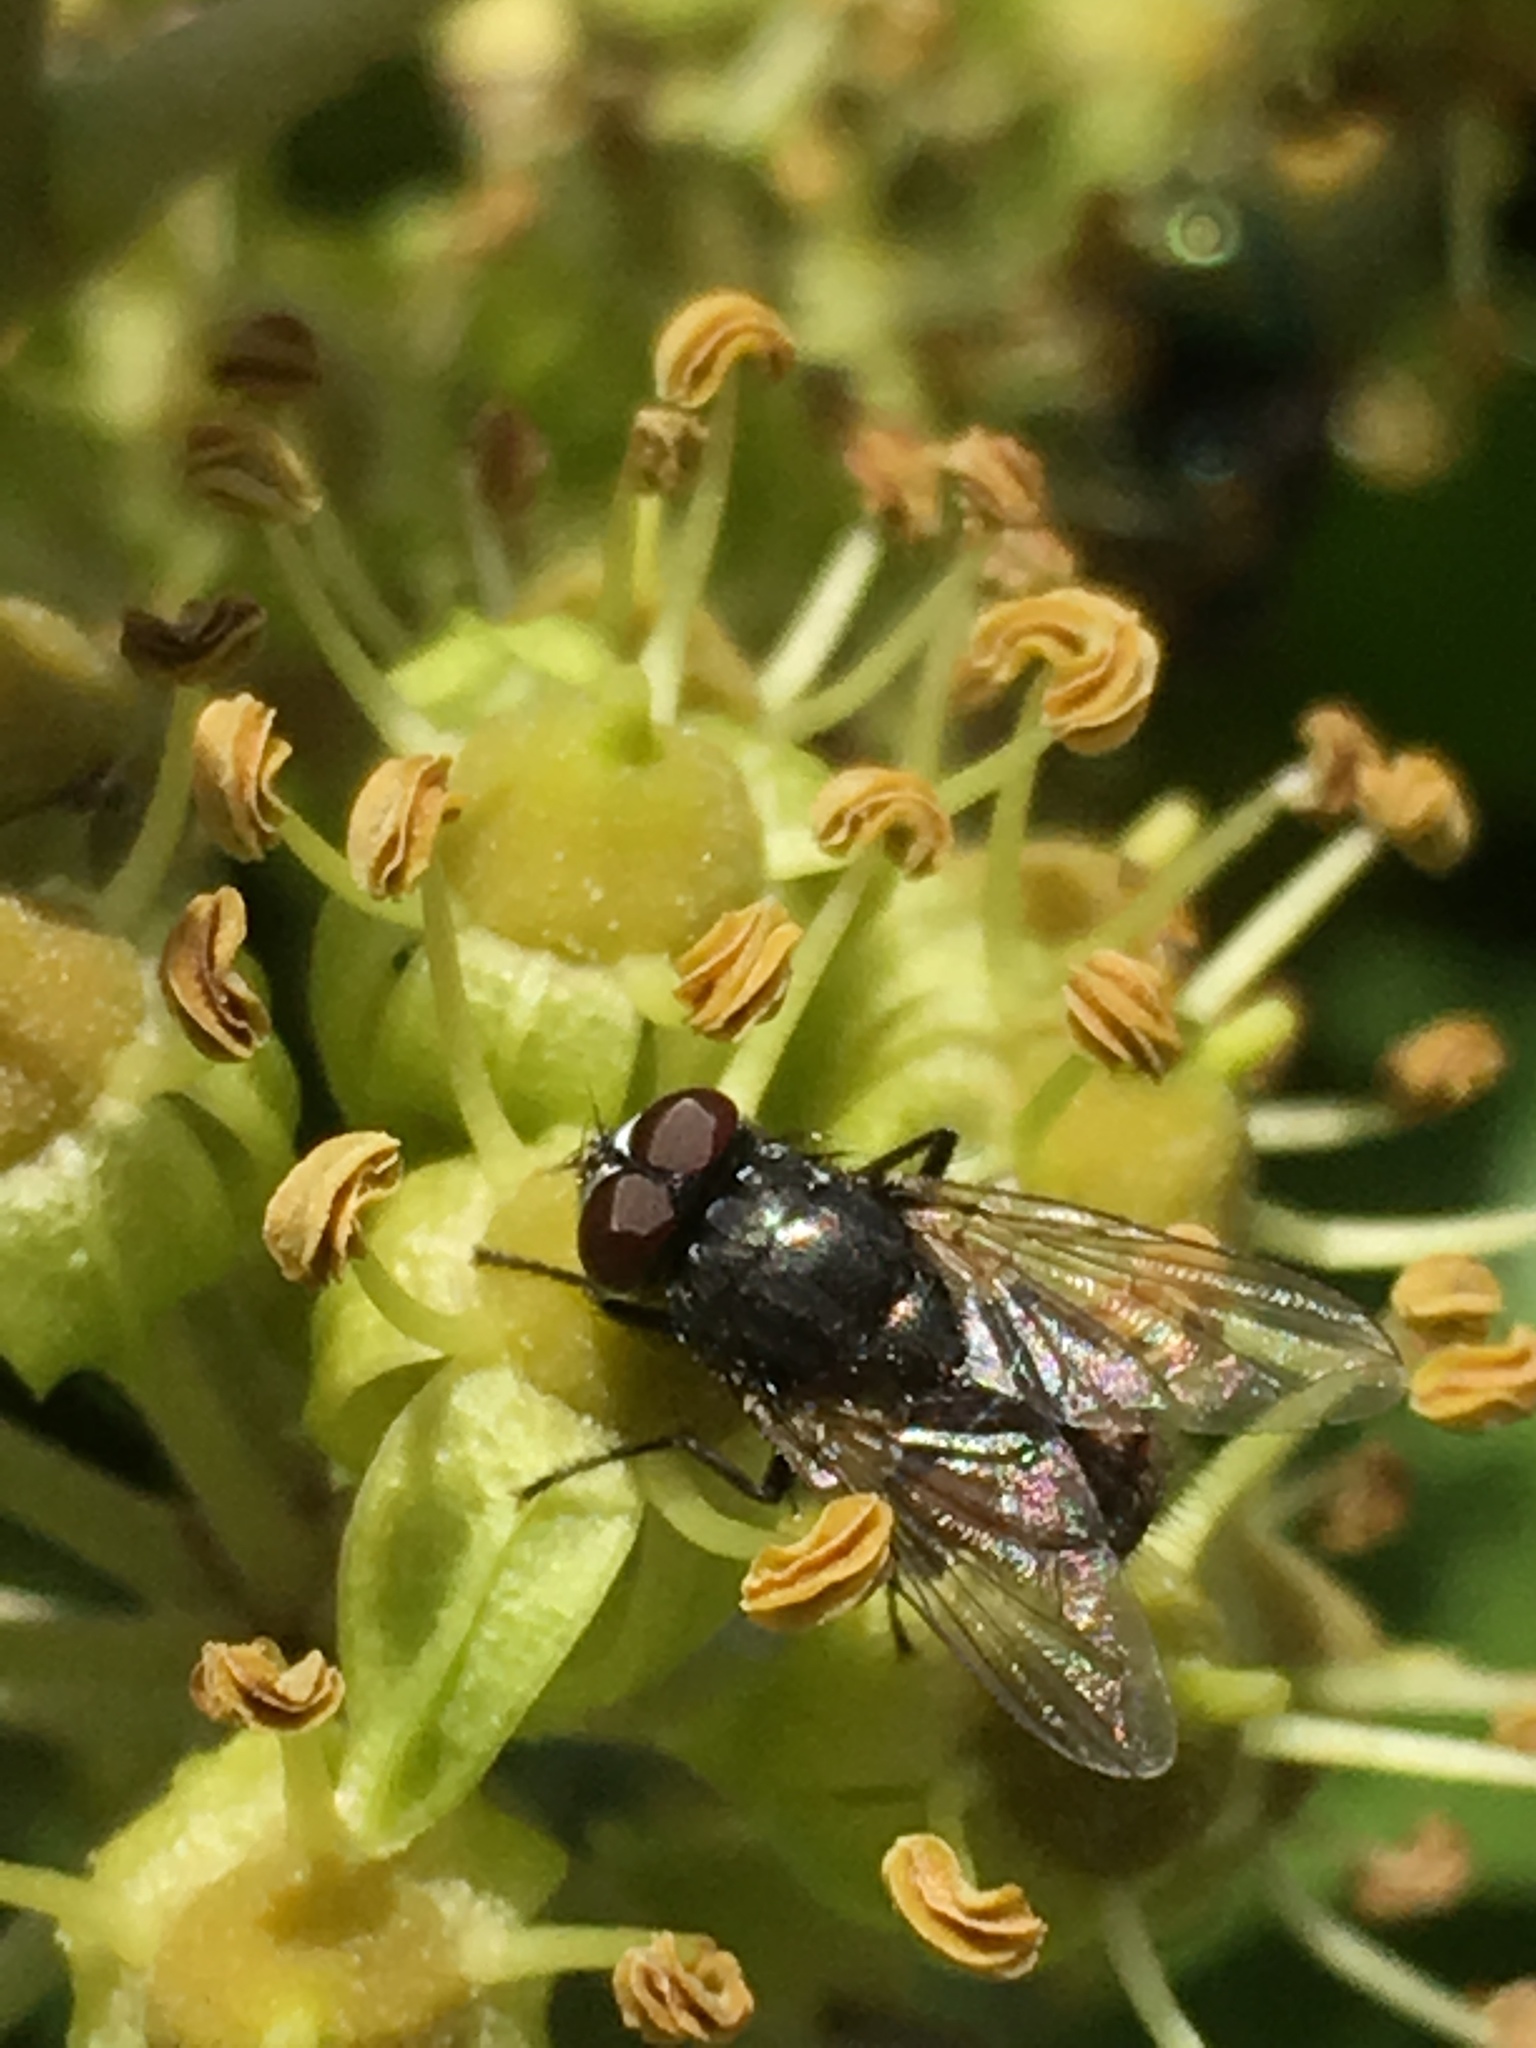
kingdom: Animalia
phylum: Arthropoda
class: Insecta
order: Diptera
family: Muscidae
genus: Musca
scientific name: Musca autumnalis
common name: Face fly
